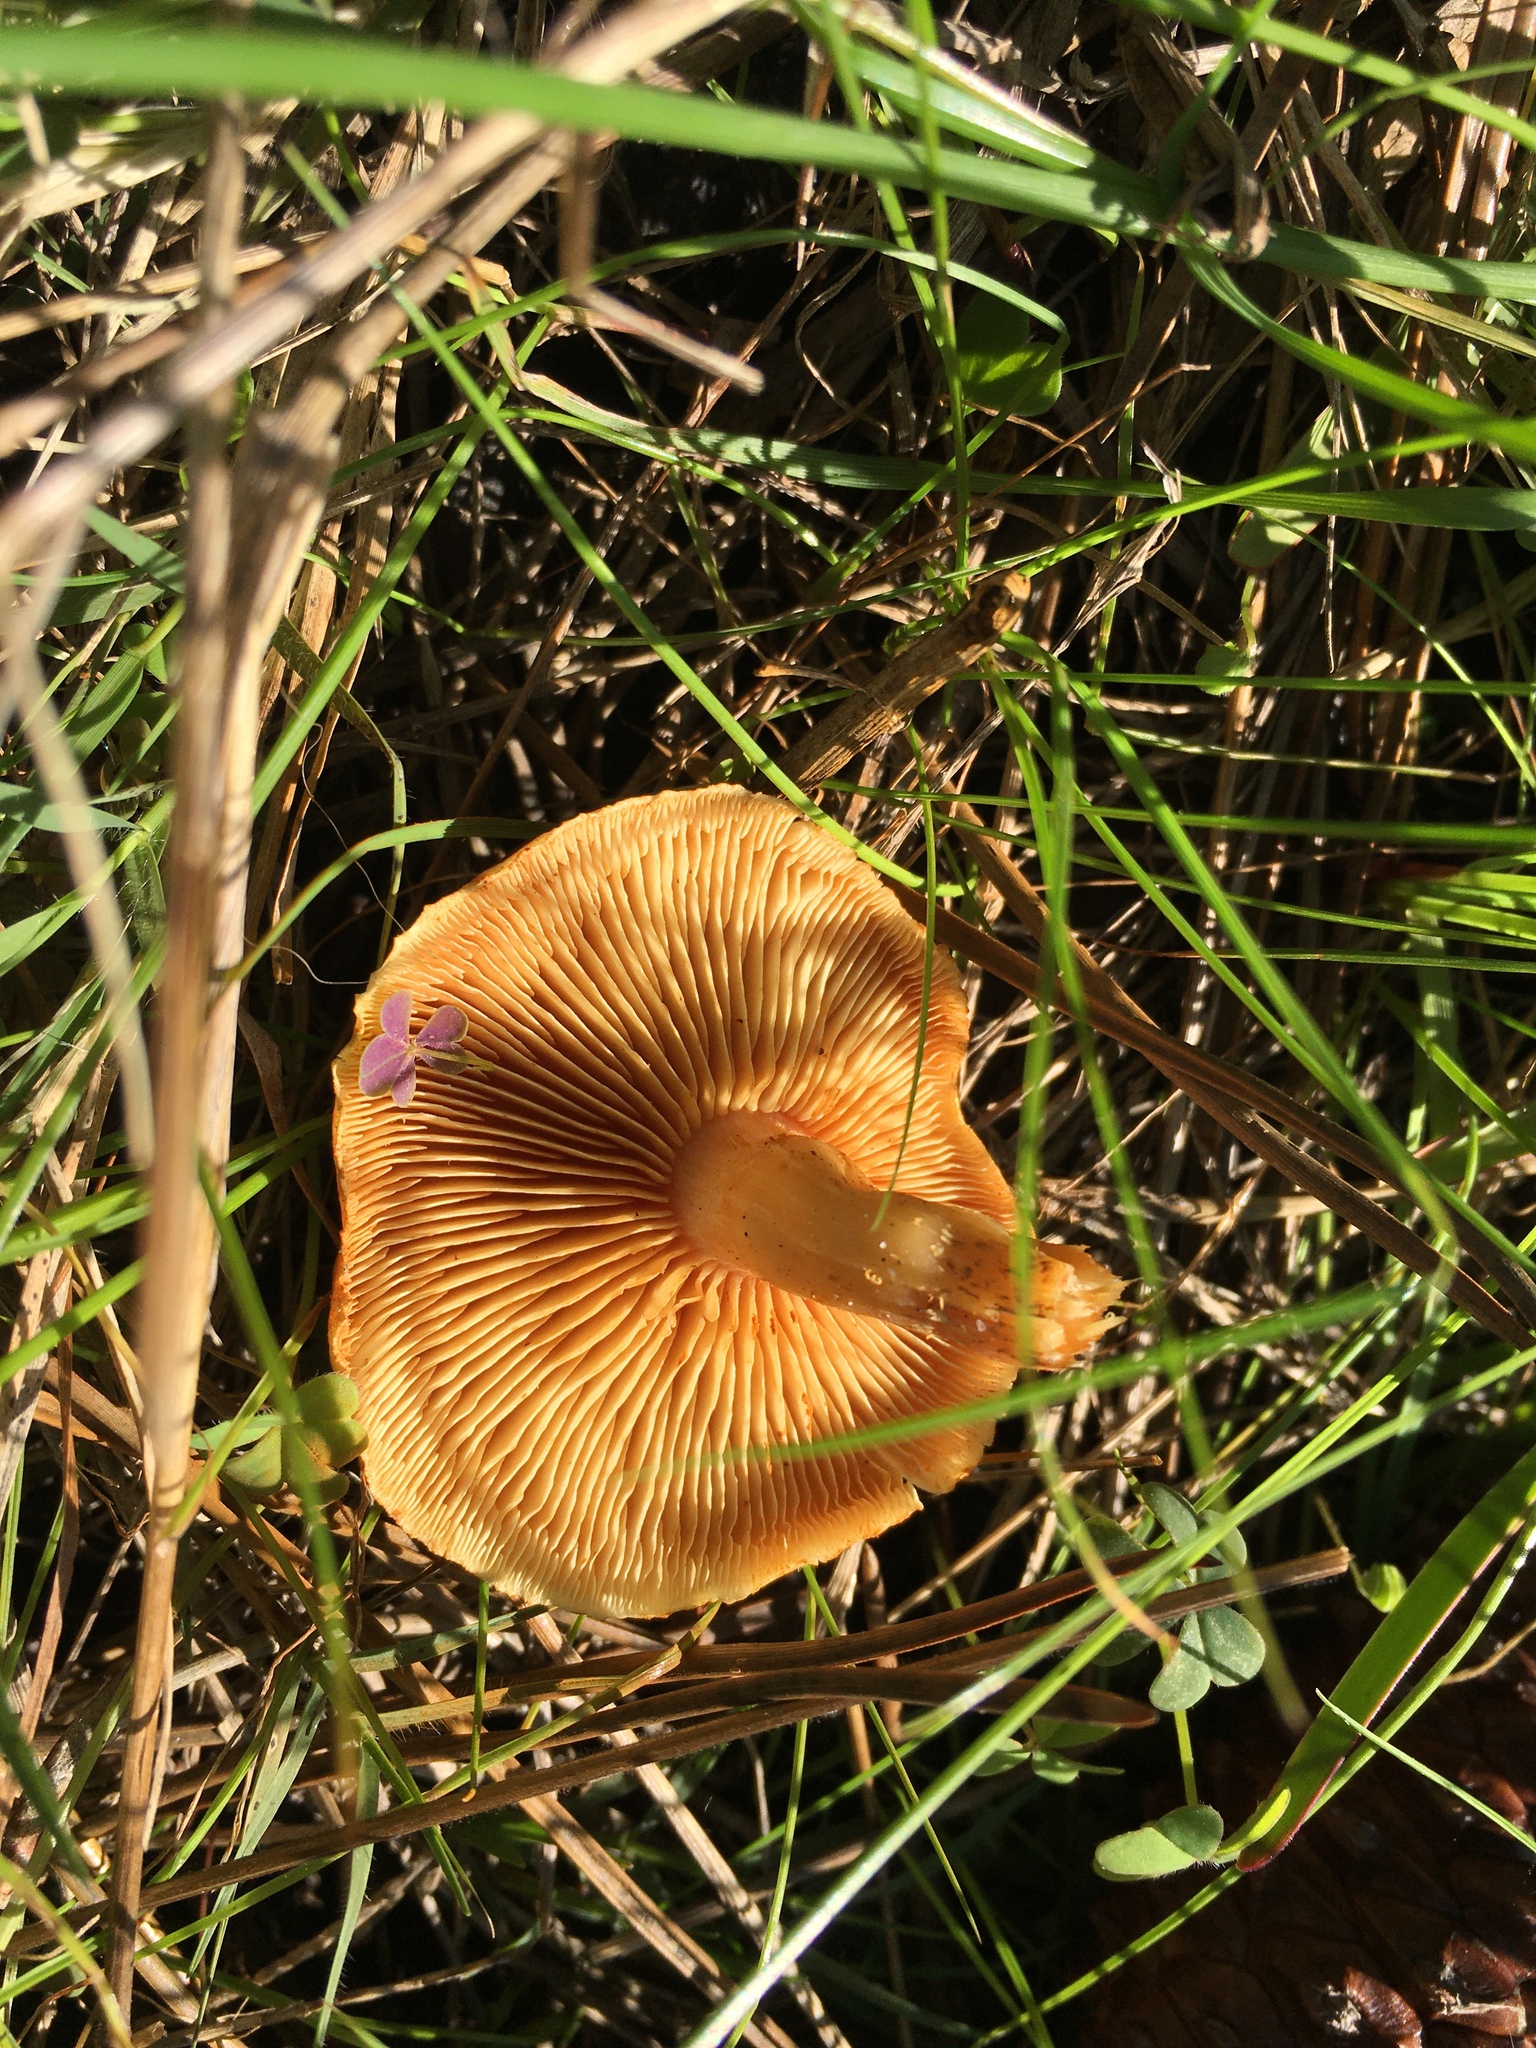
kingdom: Fungi
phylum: Basidiomycota
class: Agaricomycetes
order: Agaricales
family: Hymenogastraceae
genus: Gymnopilus
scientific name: Gymnopilus penetrans
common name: Common rustgill
